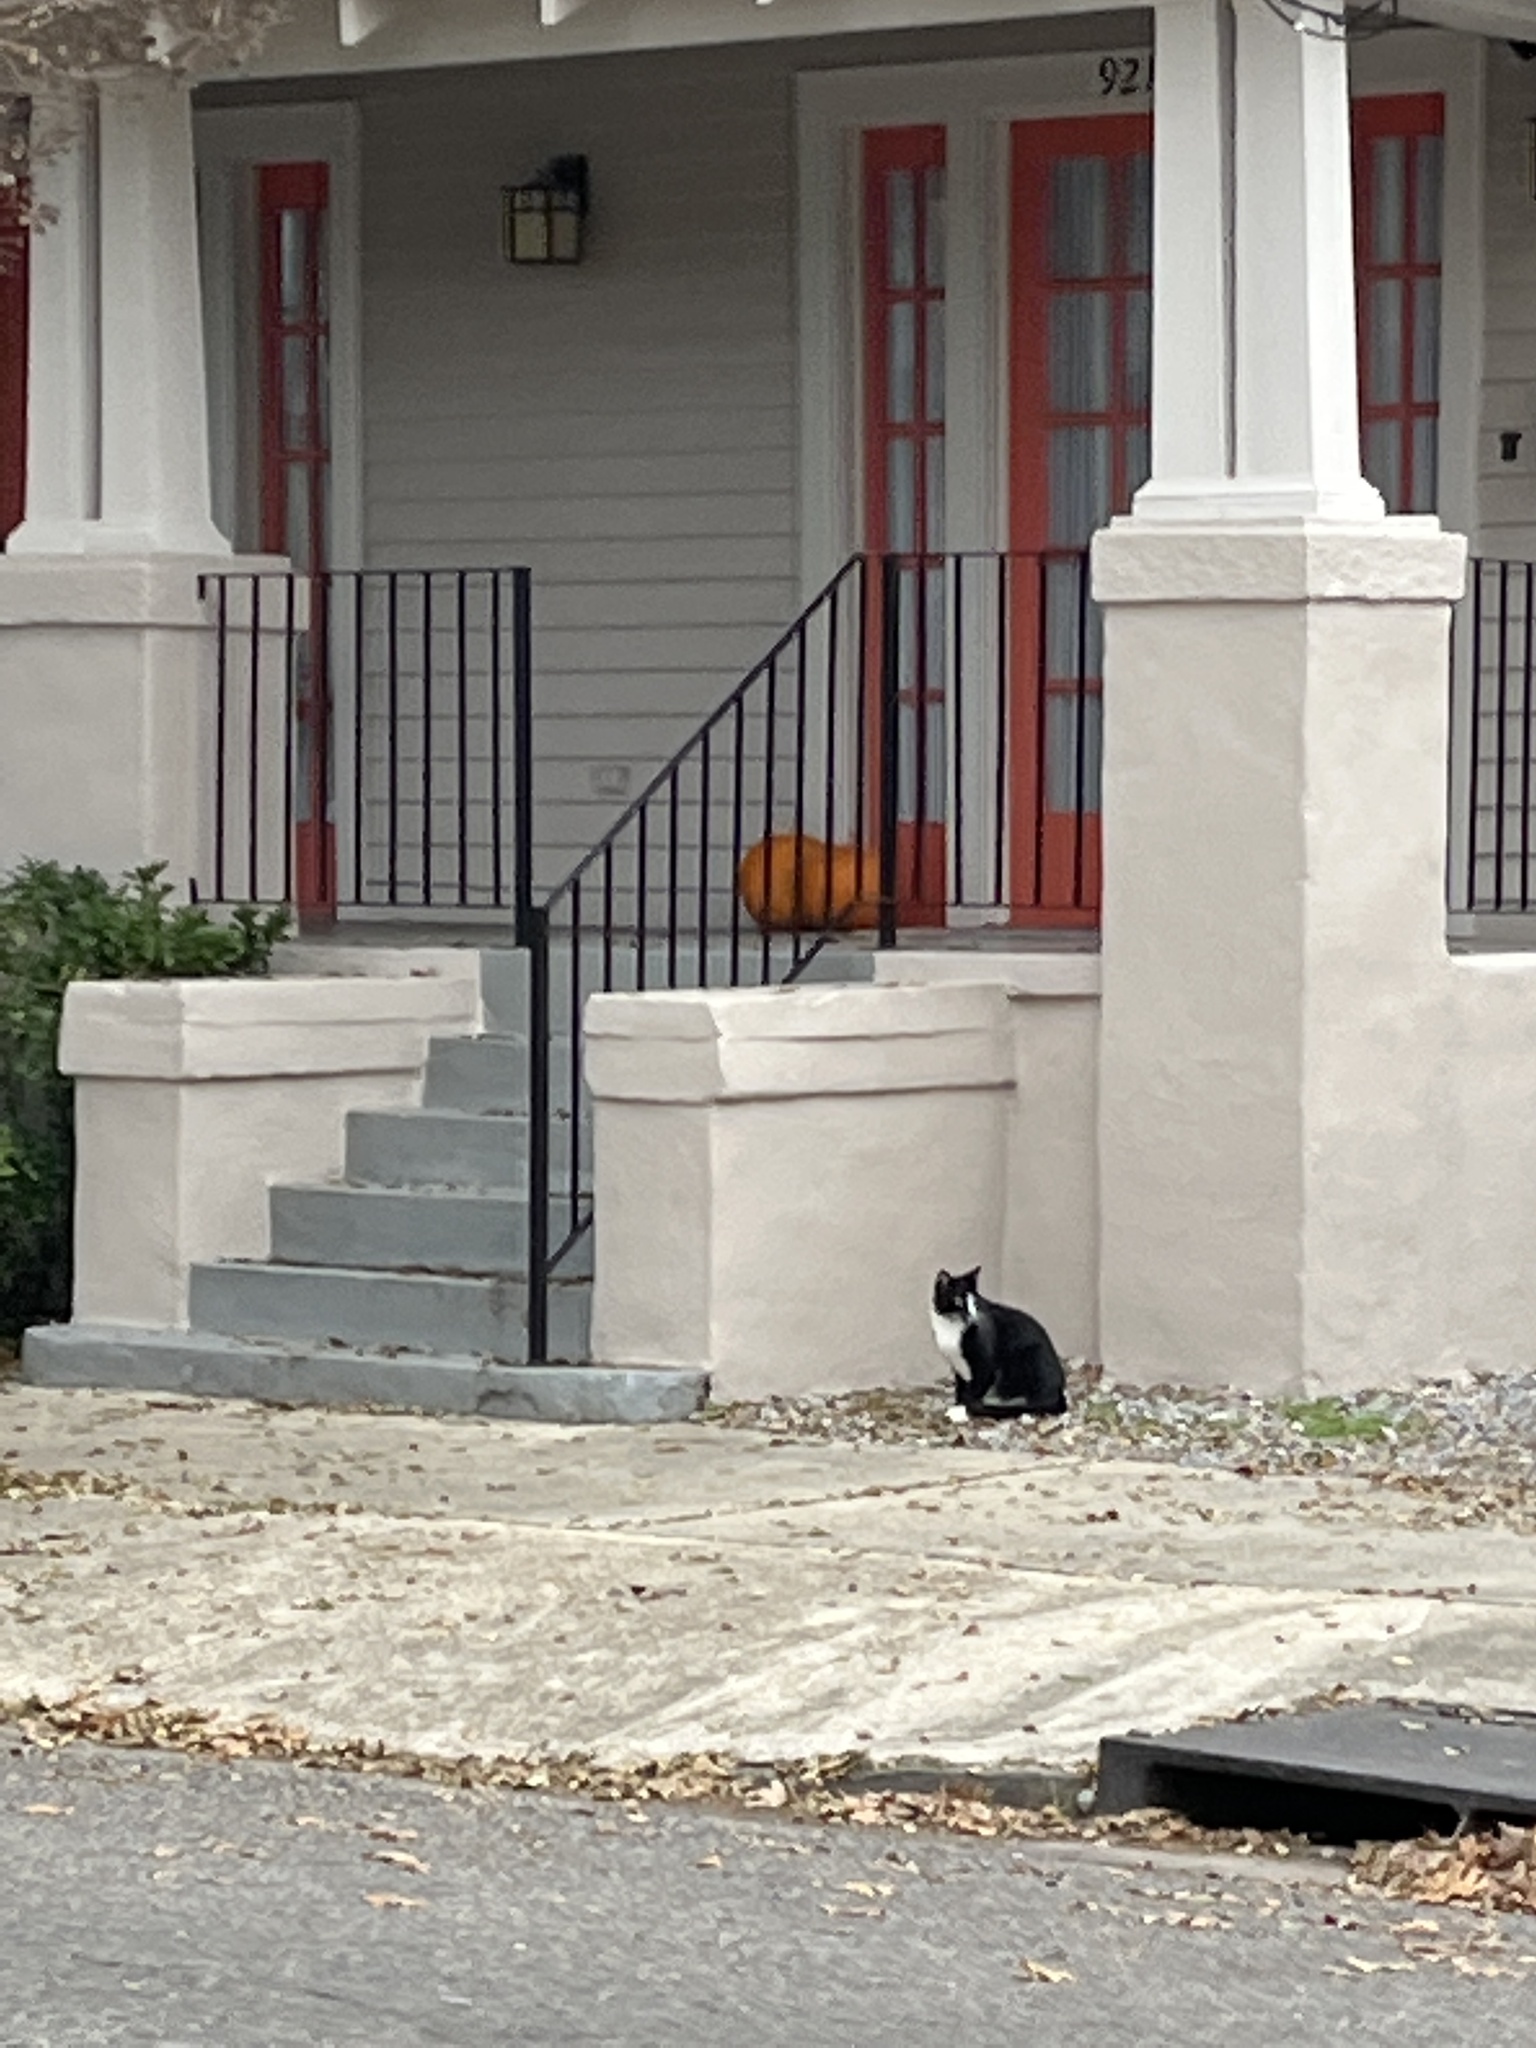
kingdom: Animalia
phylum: Chordata
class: Mammalia
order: Carnivora
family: Felidae
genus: Felis
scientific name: Felis catus
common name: Domestic cat
